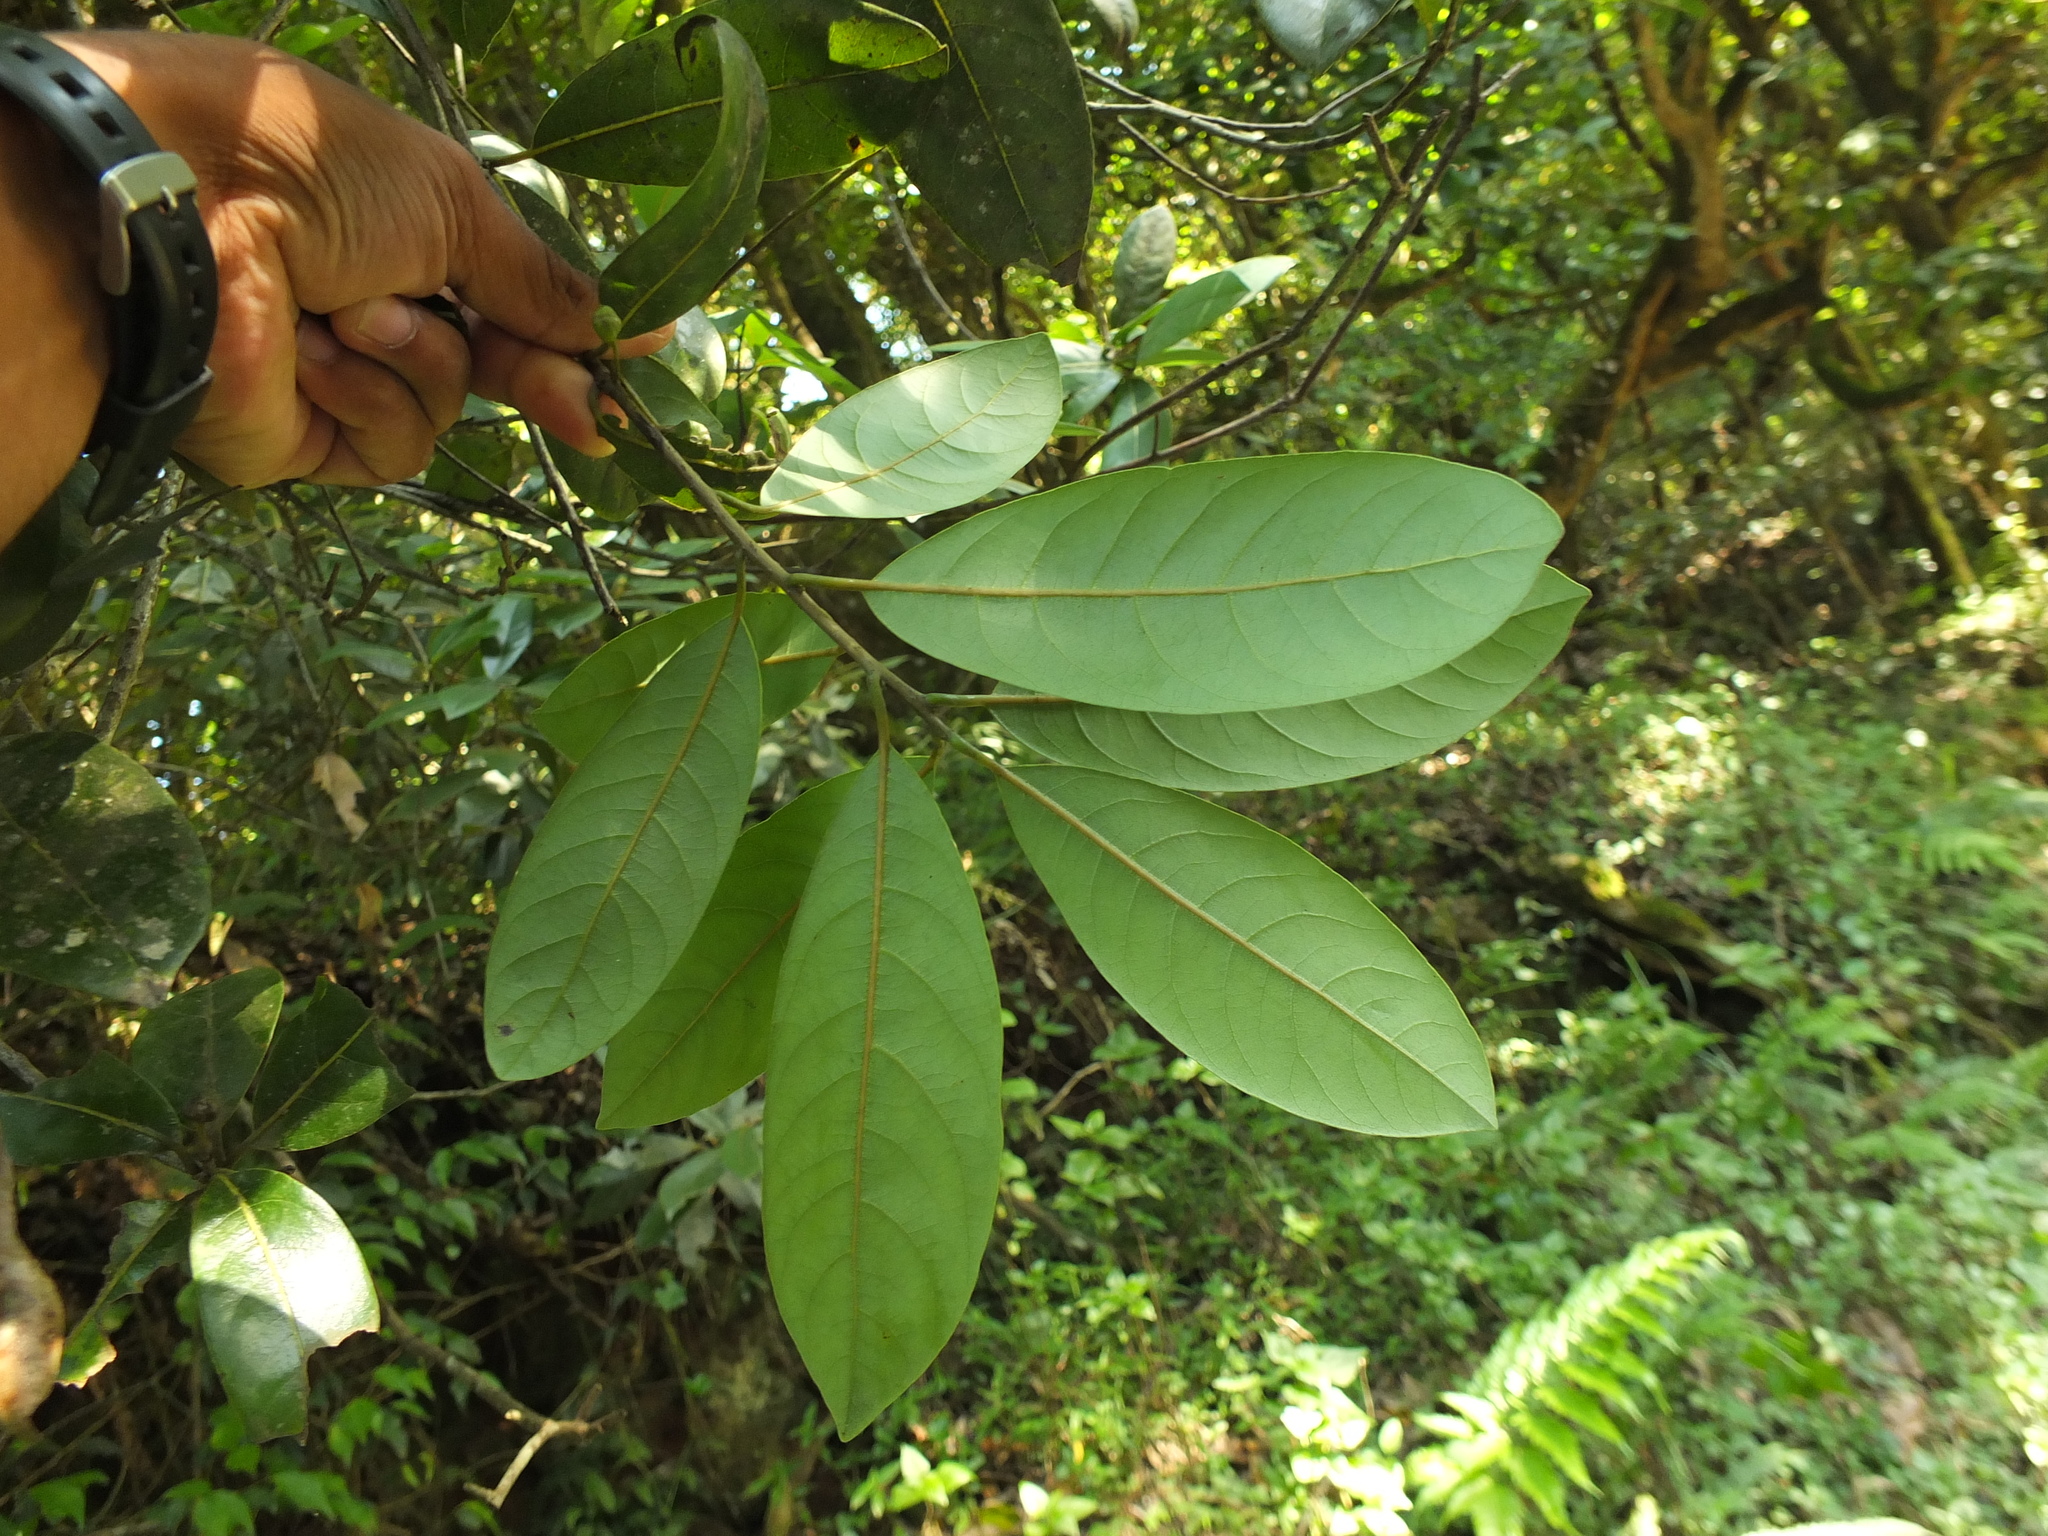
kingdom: Plantae
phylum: Tracheophyta
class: Magnoliopsida
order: Laurales
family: Lauraceae
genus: Litsea
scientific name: Litsea ligustrina
